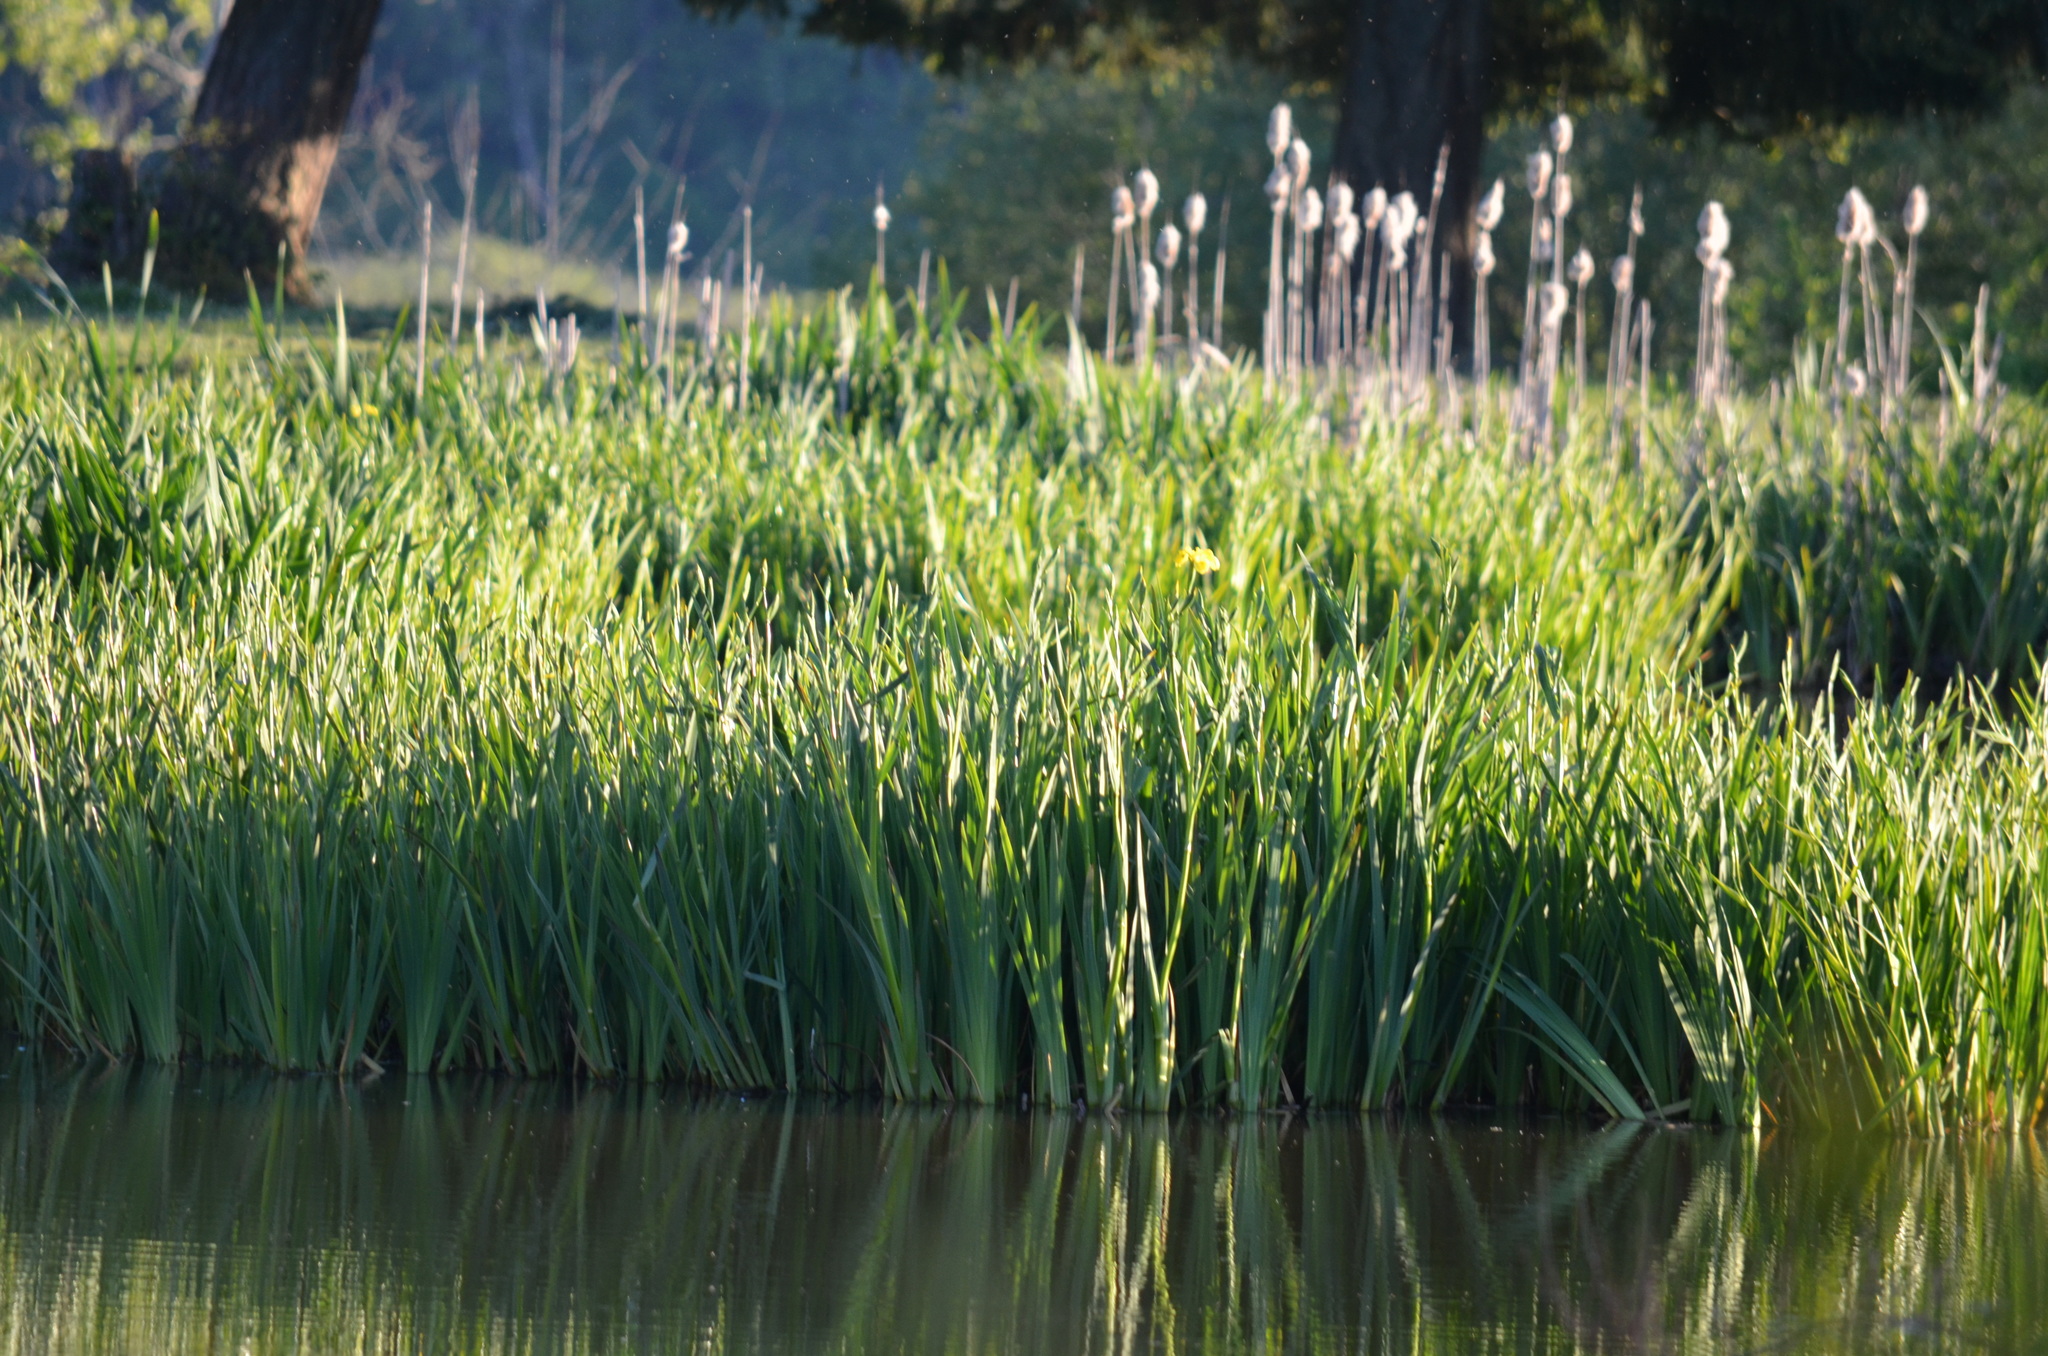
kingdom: Plantae
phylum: Tracheophyta
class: Liliopsida
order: Asparagales
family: Iridaceae
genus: Iris
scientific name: Iris pseudacorus
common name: Yellow flag
